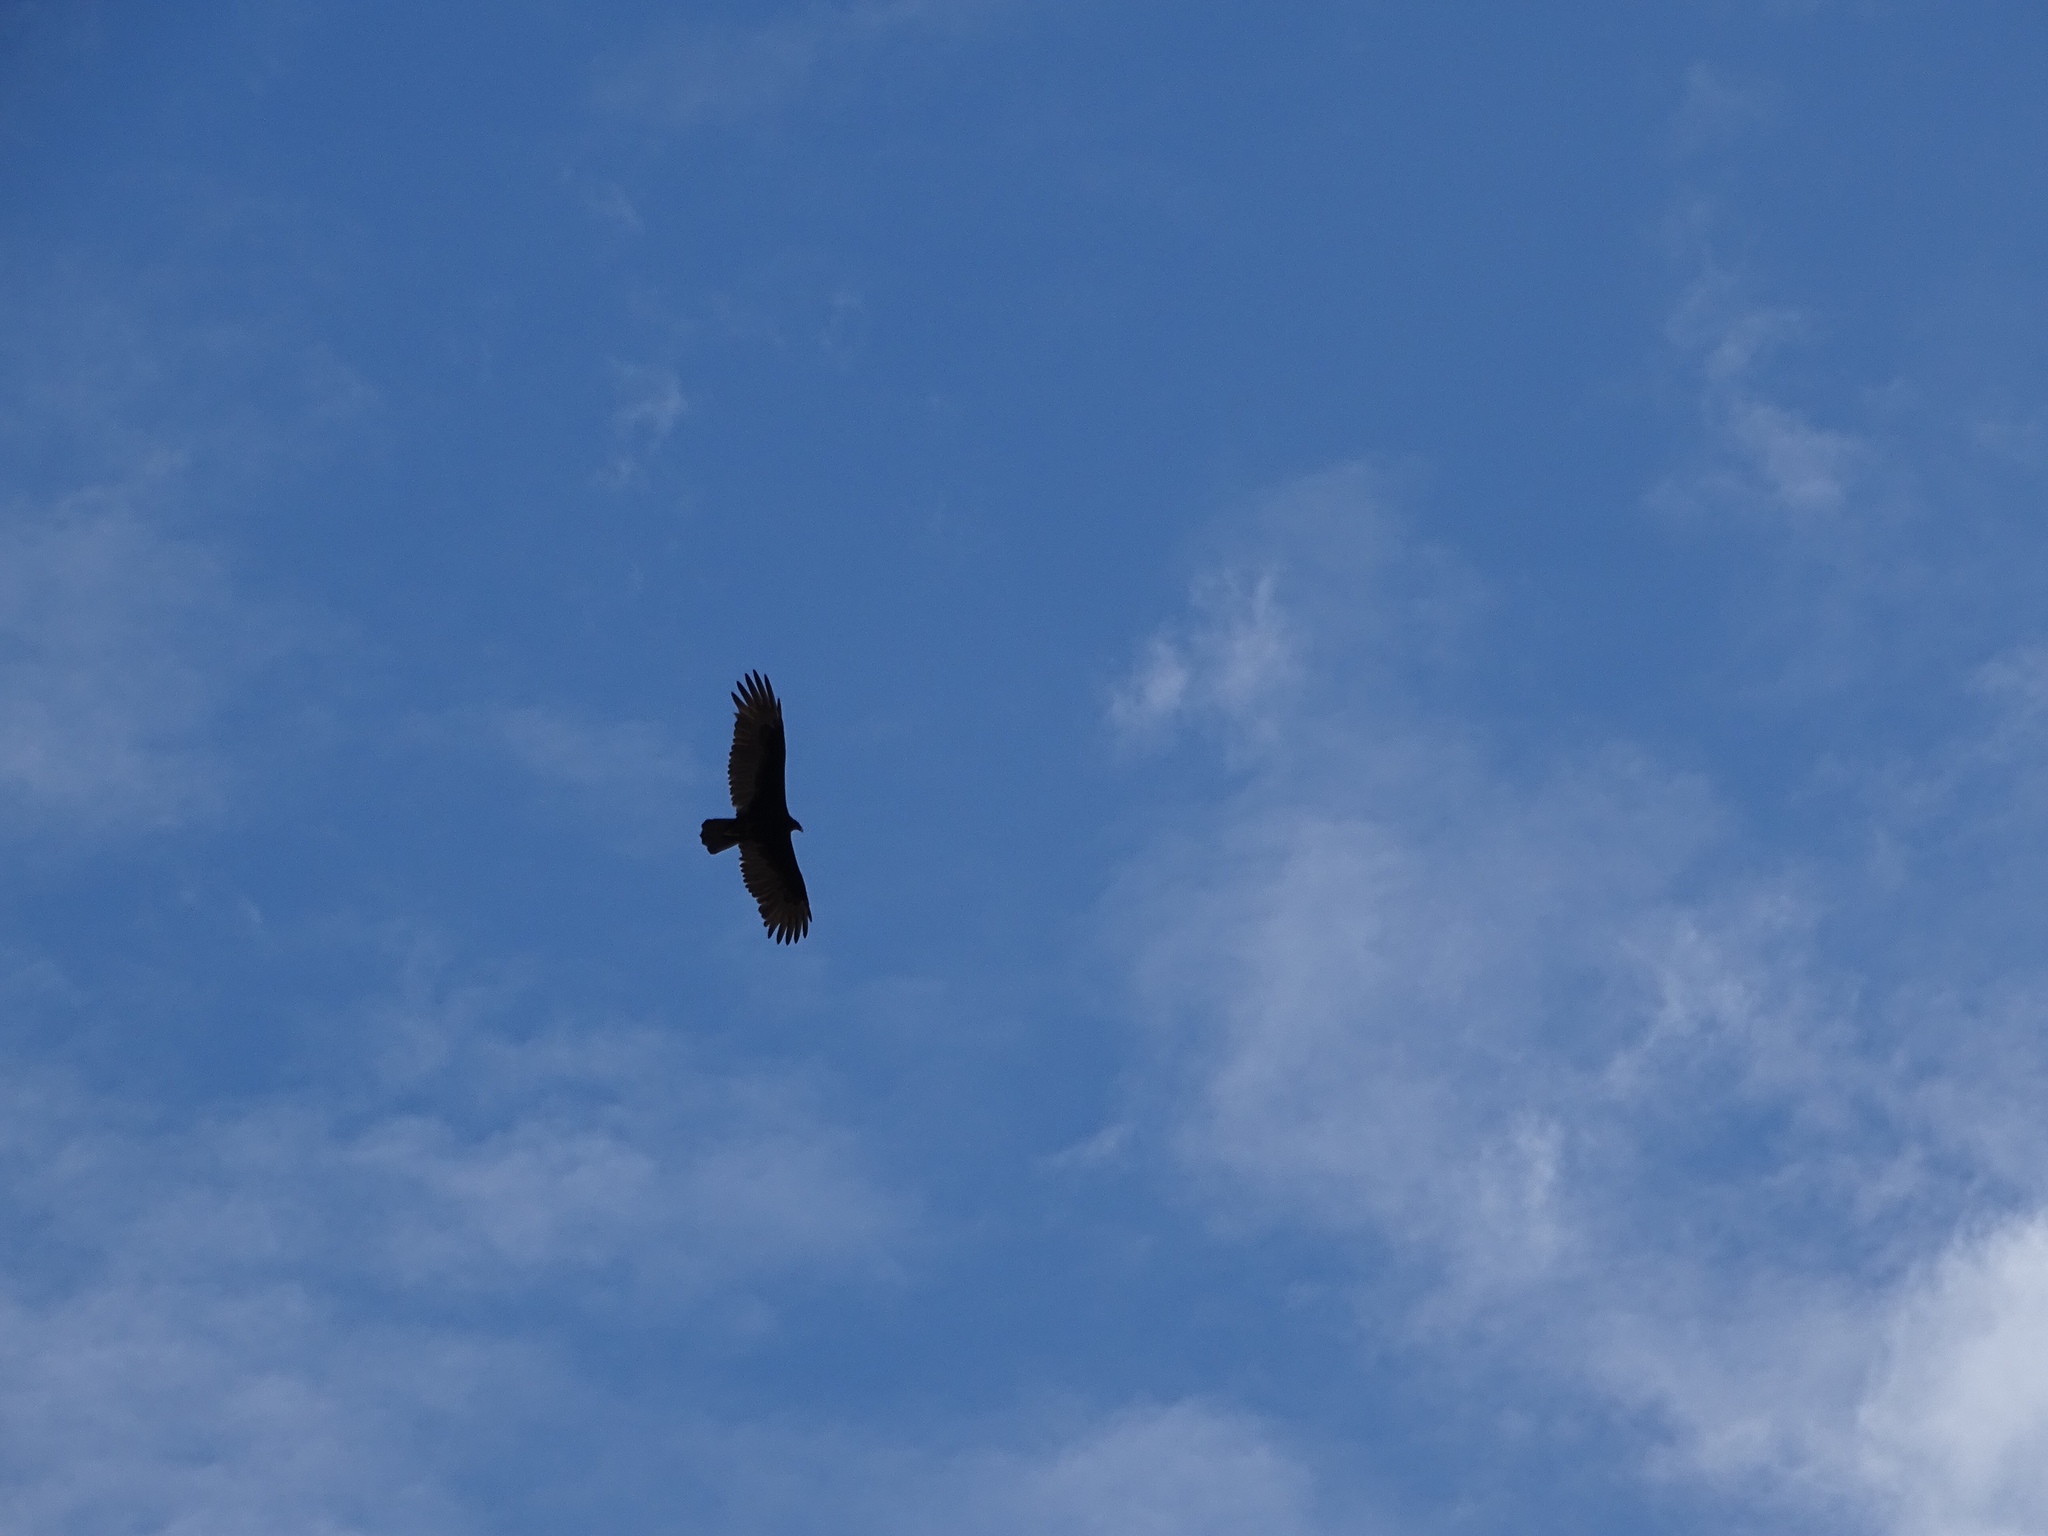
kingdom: Animalia
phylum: Chordata
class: Aves
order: Accipitriformes
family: Cathartidae
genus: Cathartes
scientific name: Cathartes aura
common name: Turkey vulture
